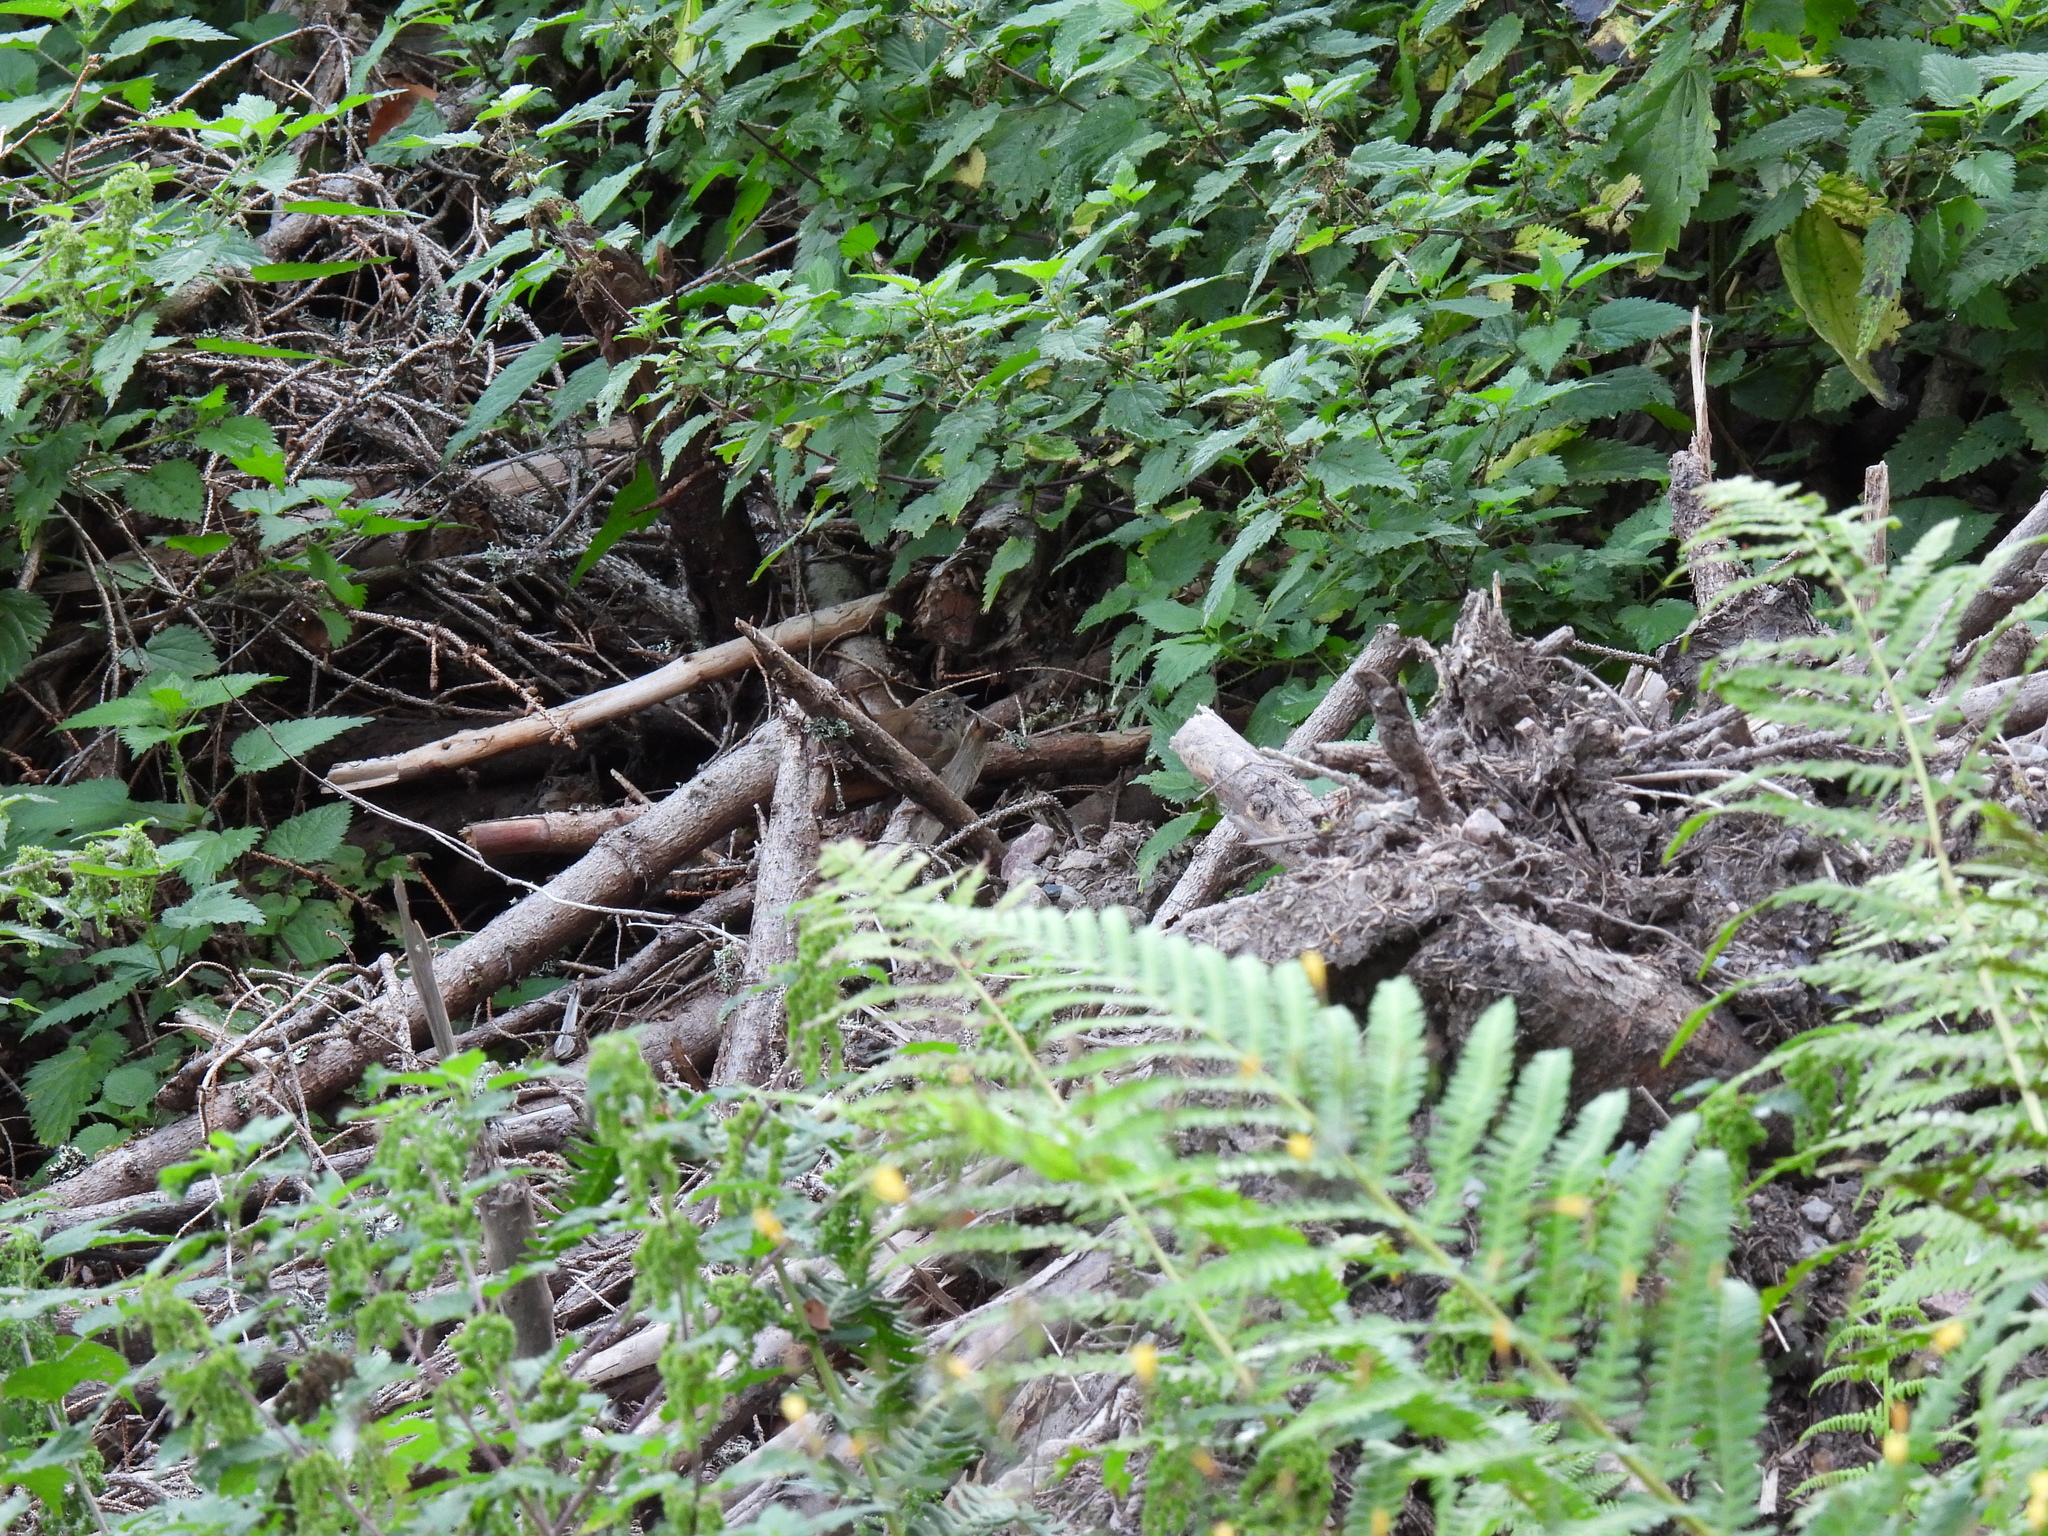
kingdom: Animalia
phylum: Chordata
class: Aves
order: Passeriformes
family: Troglodytidae
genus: Troglodytes
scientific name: Troglodytes troglodytes
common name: Eurasian wren
